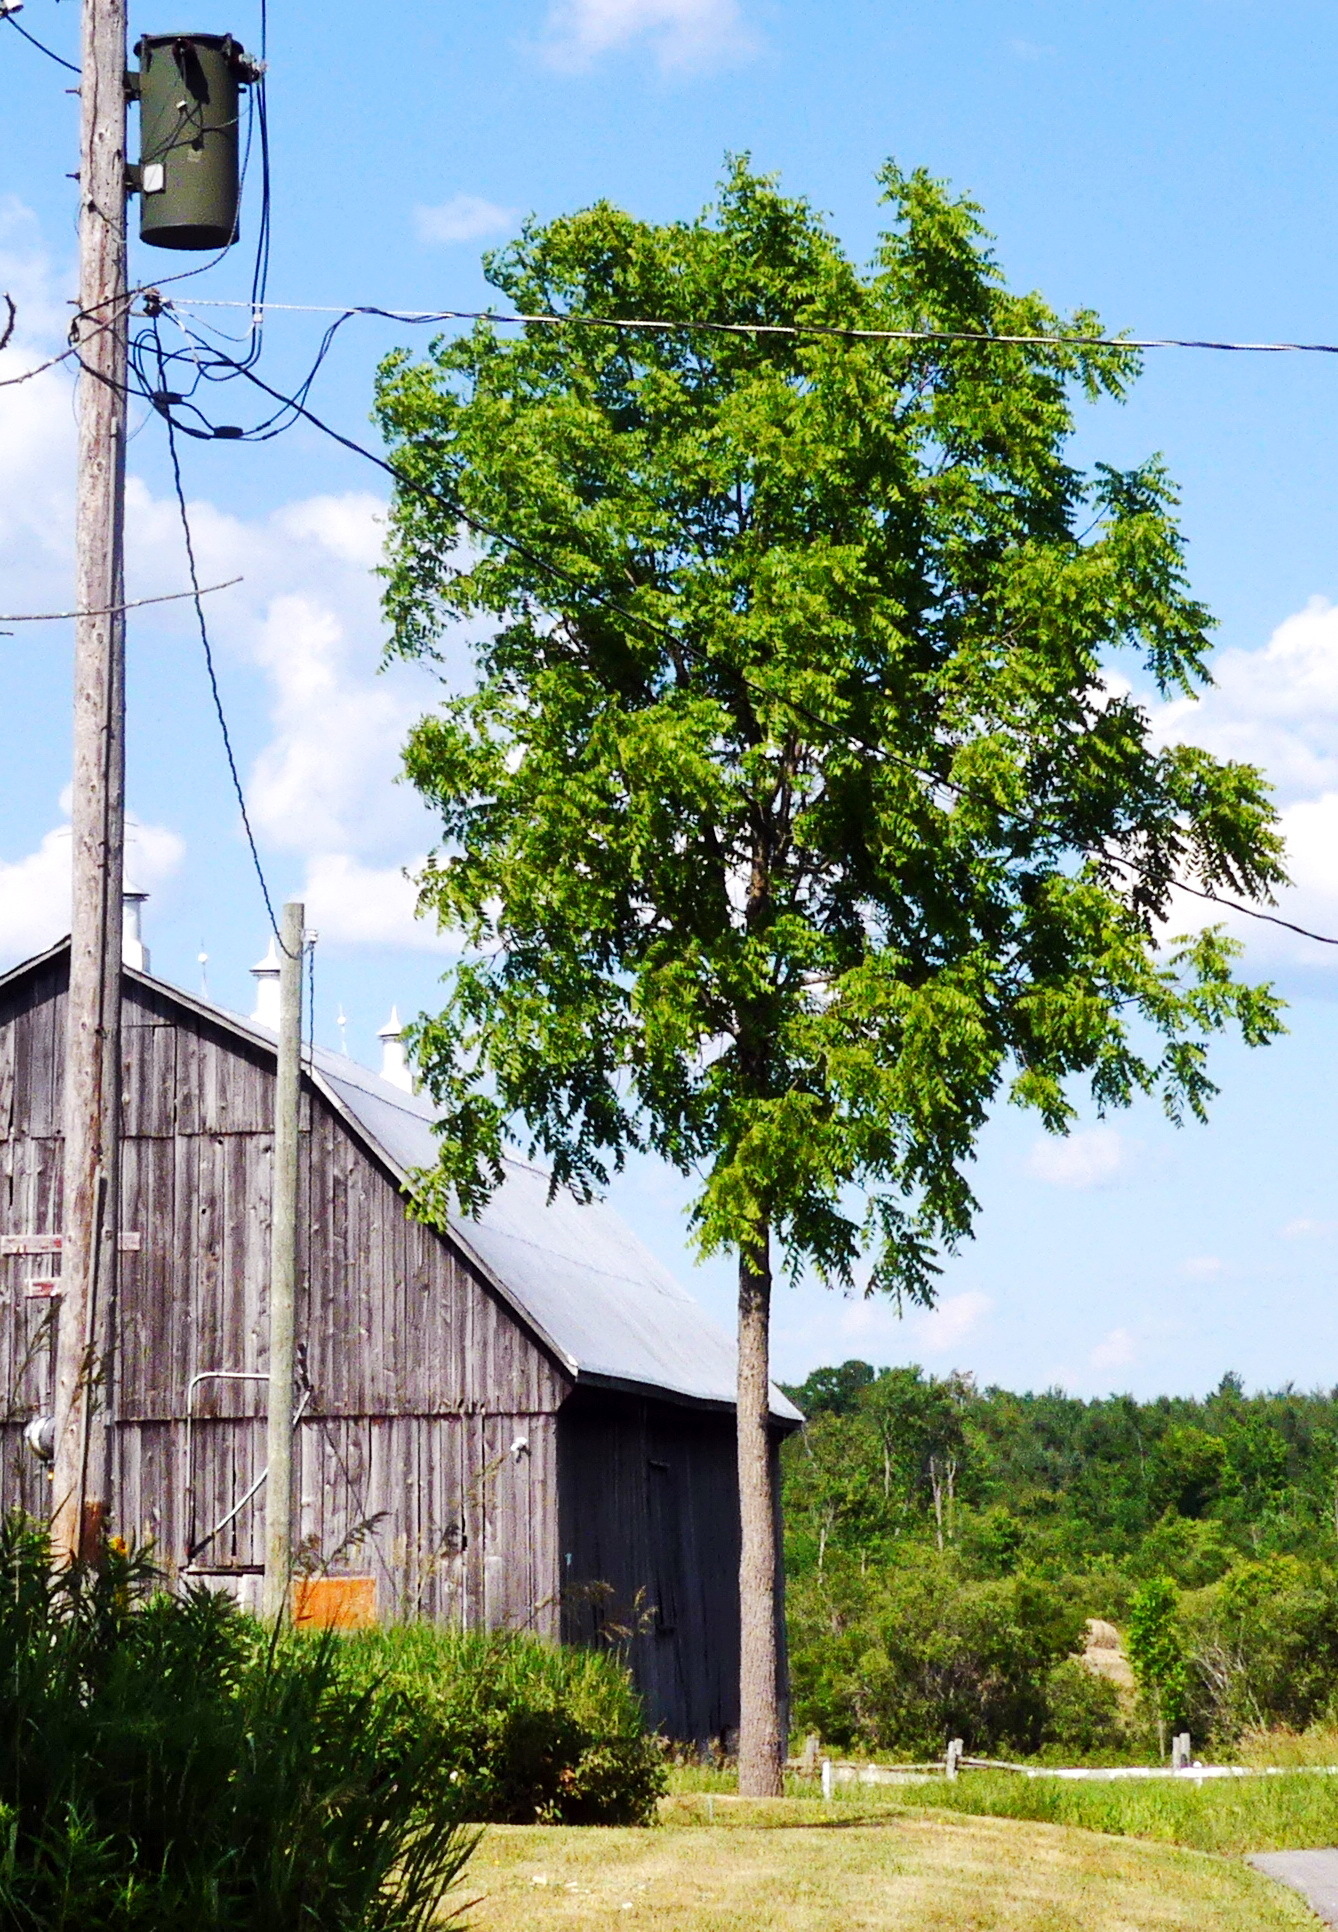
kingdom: Plantae
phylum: Tracheophyta
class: Magnoliopsida
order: Fagales
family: Juglandaceae
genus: Juglans
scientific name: Juglans nigra
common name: Black walnut
